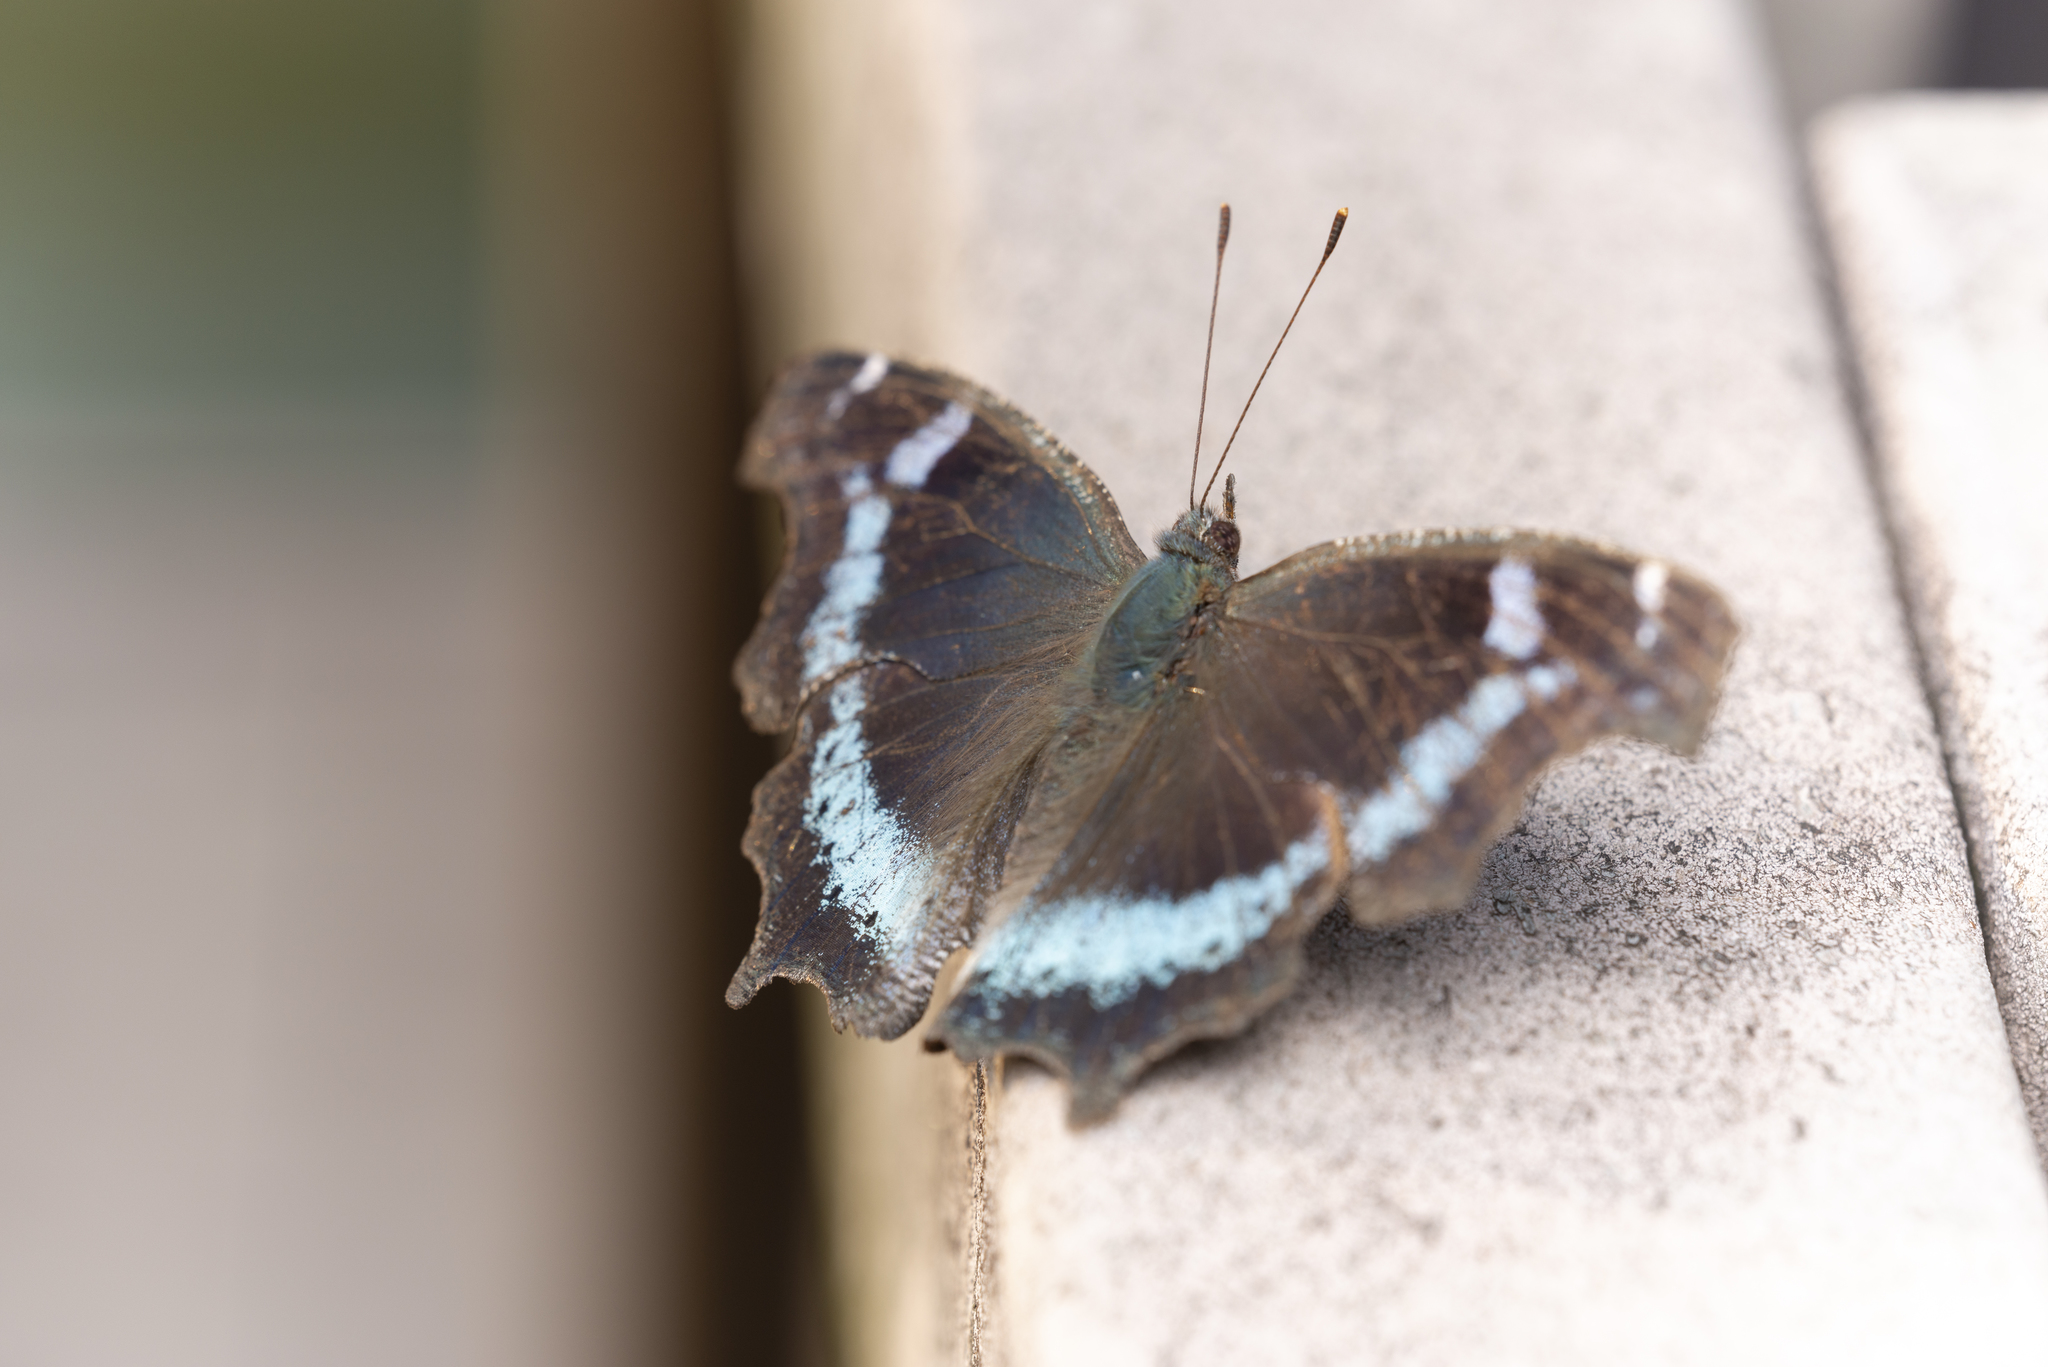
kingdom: Animalia
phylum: Arthropoda
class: Insecta
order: Lepidoptera
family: Nymphalidae
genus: Vanessa
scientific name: Vanessa Kaniska canace
